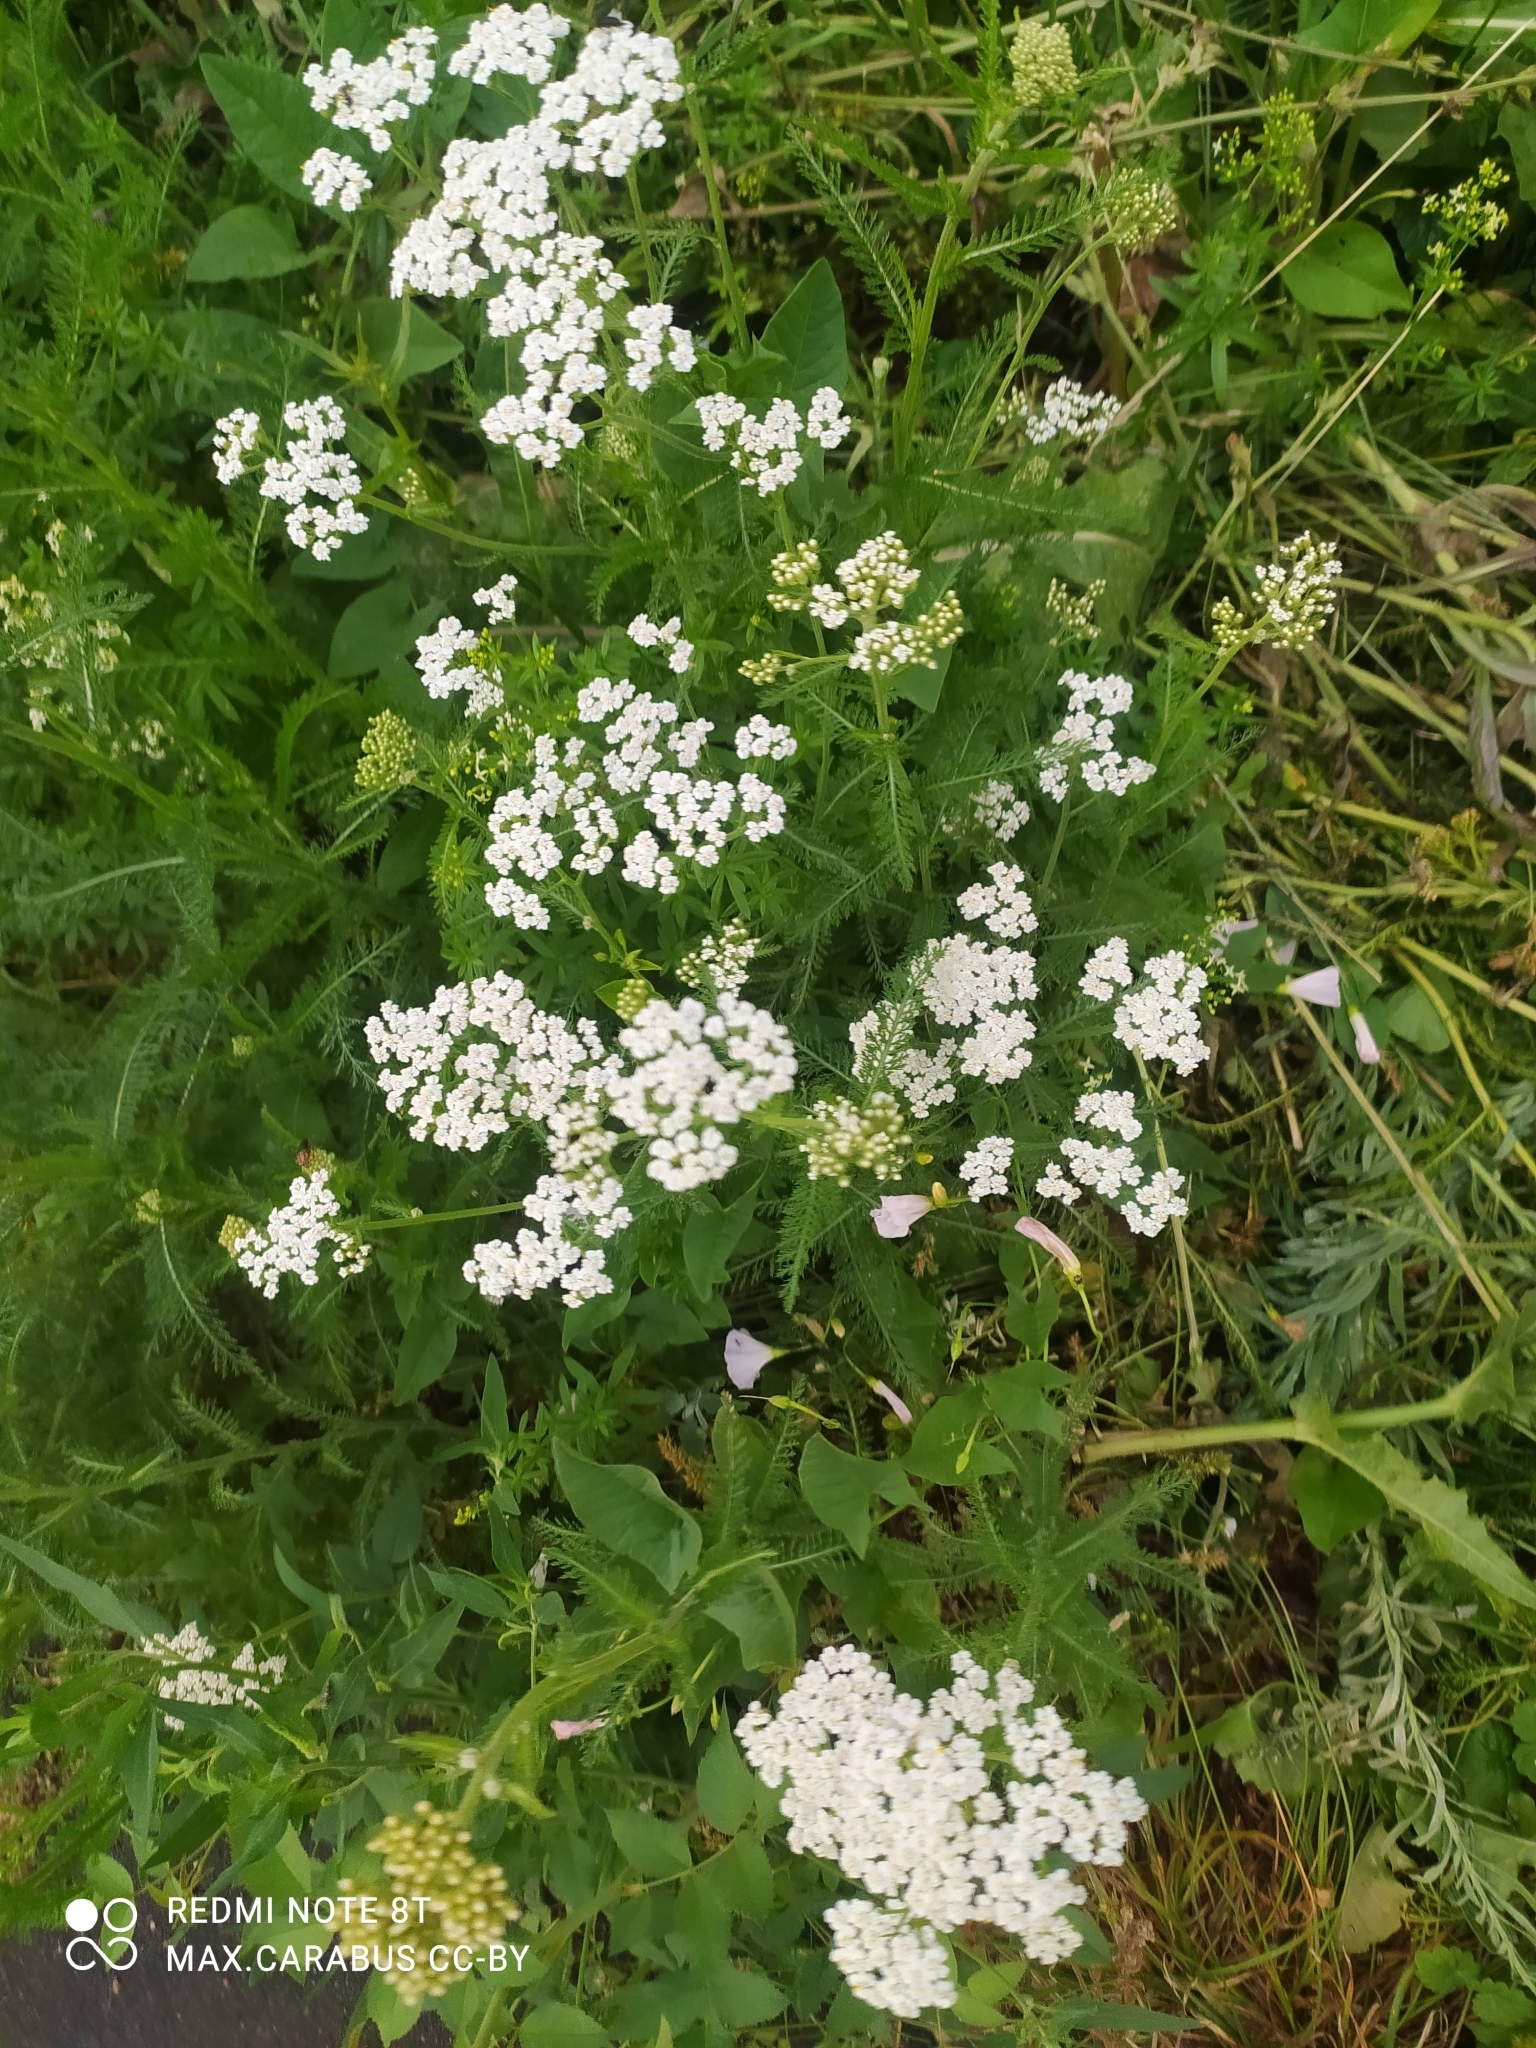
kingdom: Plantae
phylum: Tracheophyta
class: Magnoliopsida
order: Asterales
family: Asteraceae
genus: Achillea
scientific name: Achillea millefolium
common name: Yarrow
